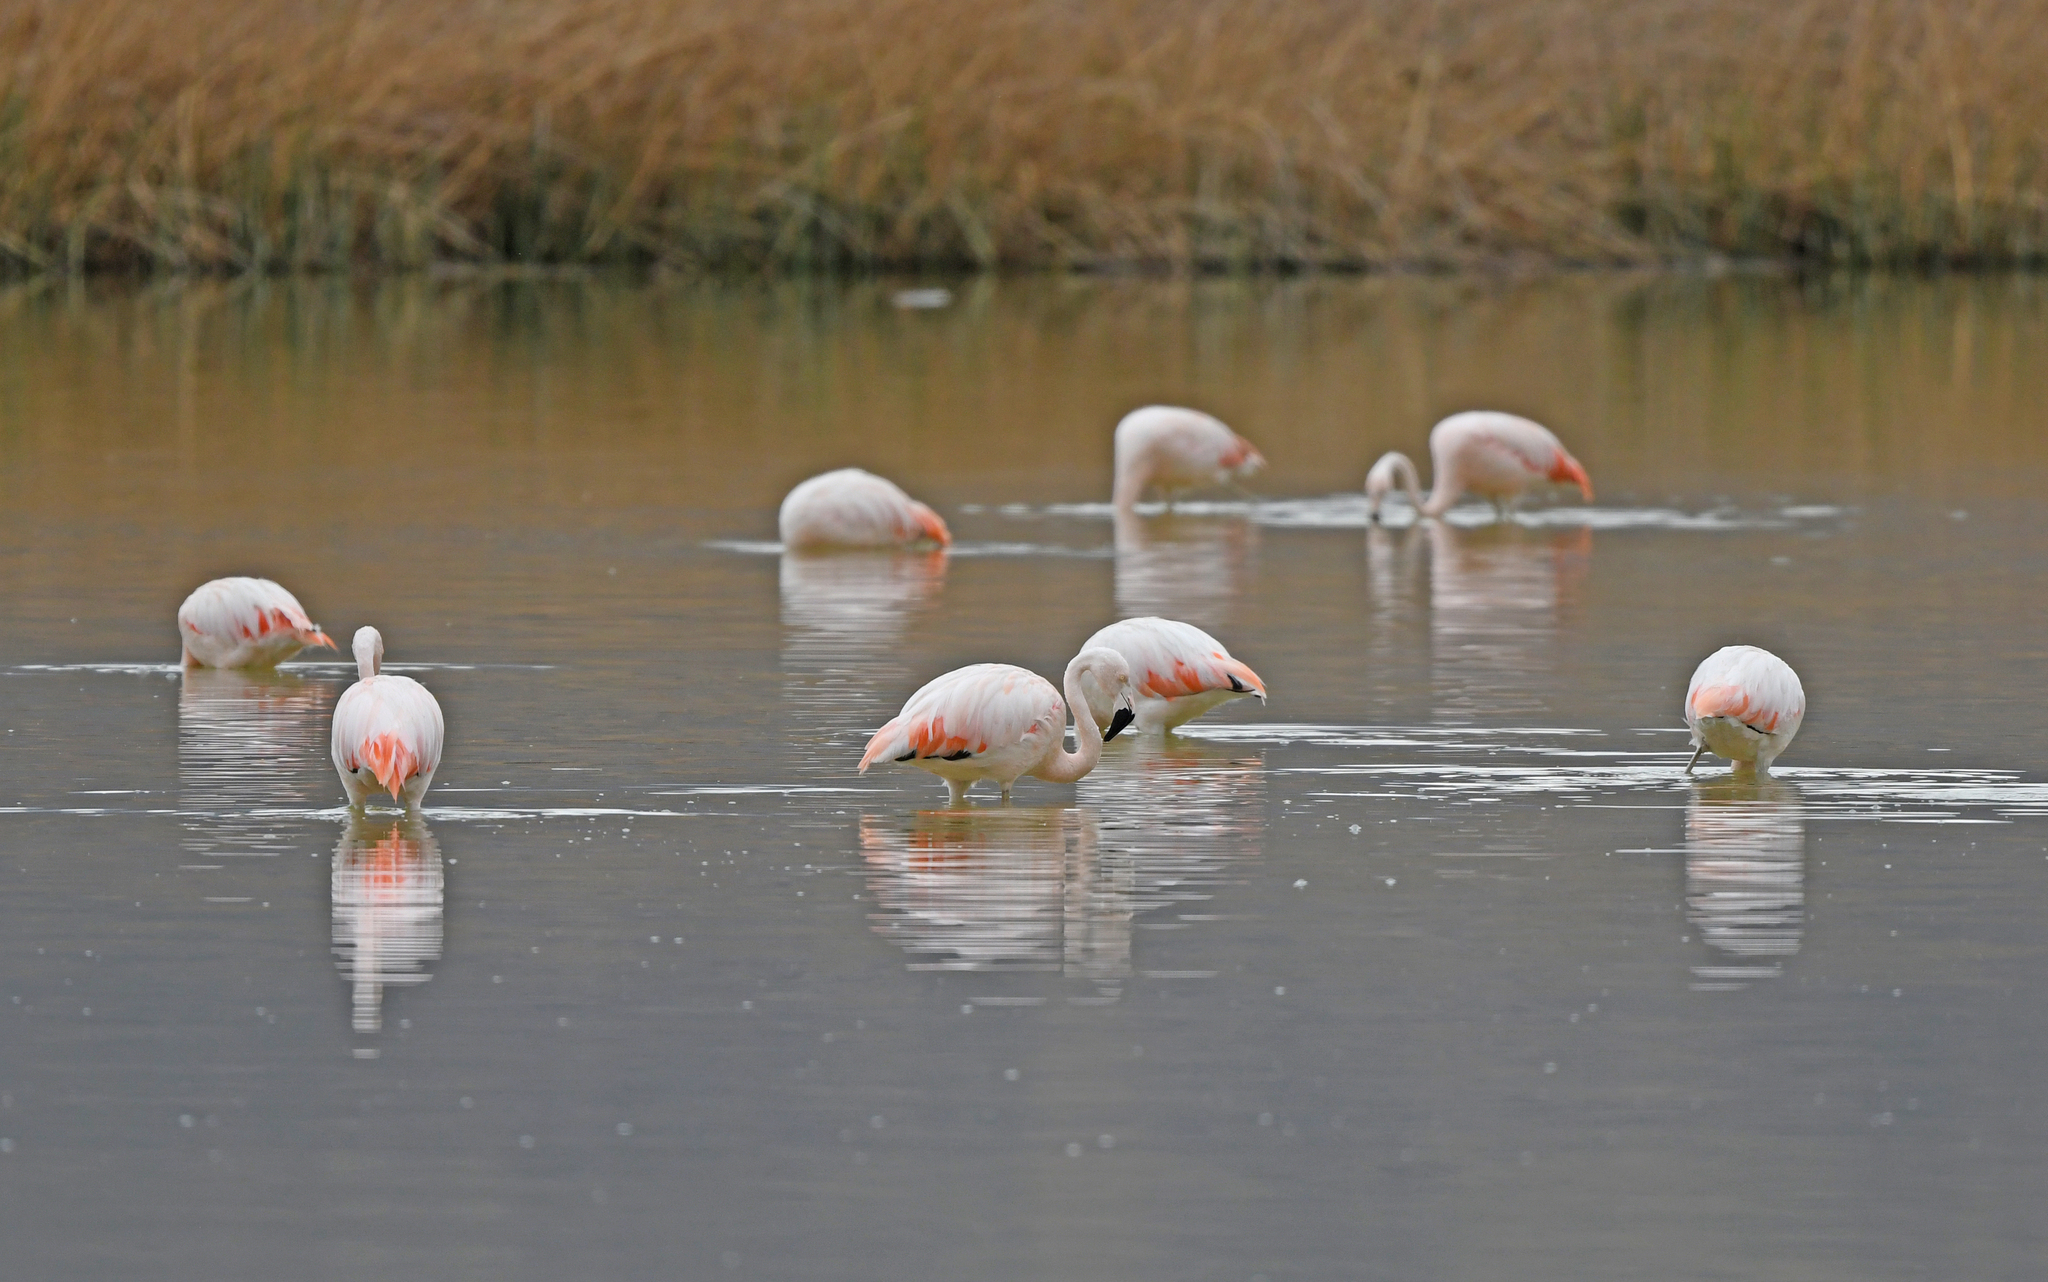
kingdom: Animalia
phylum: Chordata
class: Aves
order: Phoenicopteriformes
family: Phoenicopteridae
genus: Phoenicopterus
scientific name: Phoenicopterus chilensis
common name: Chilean flamingo
